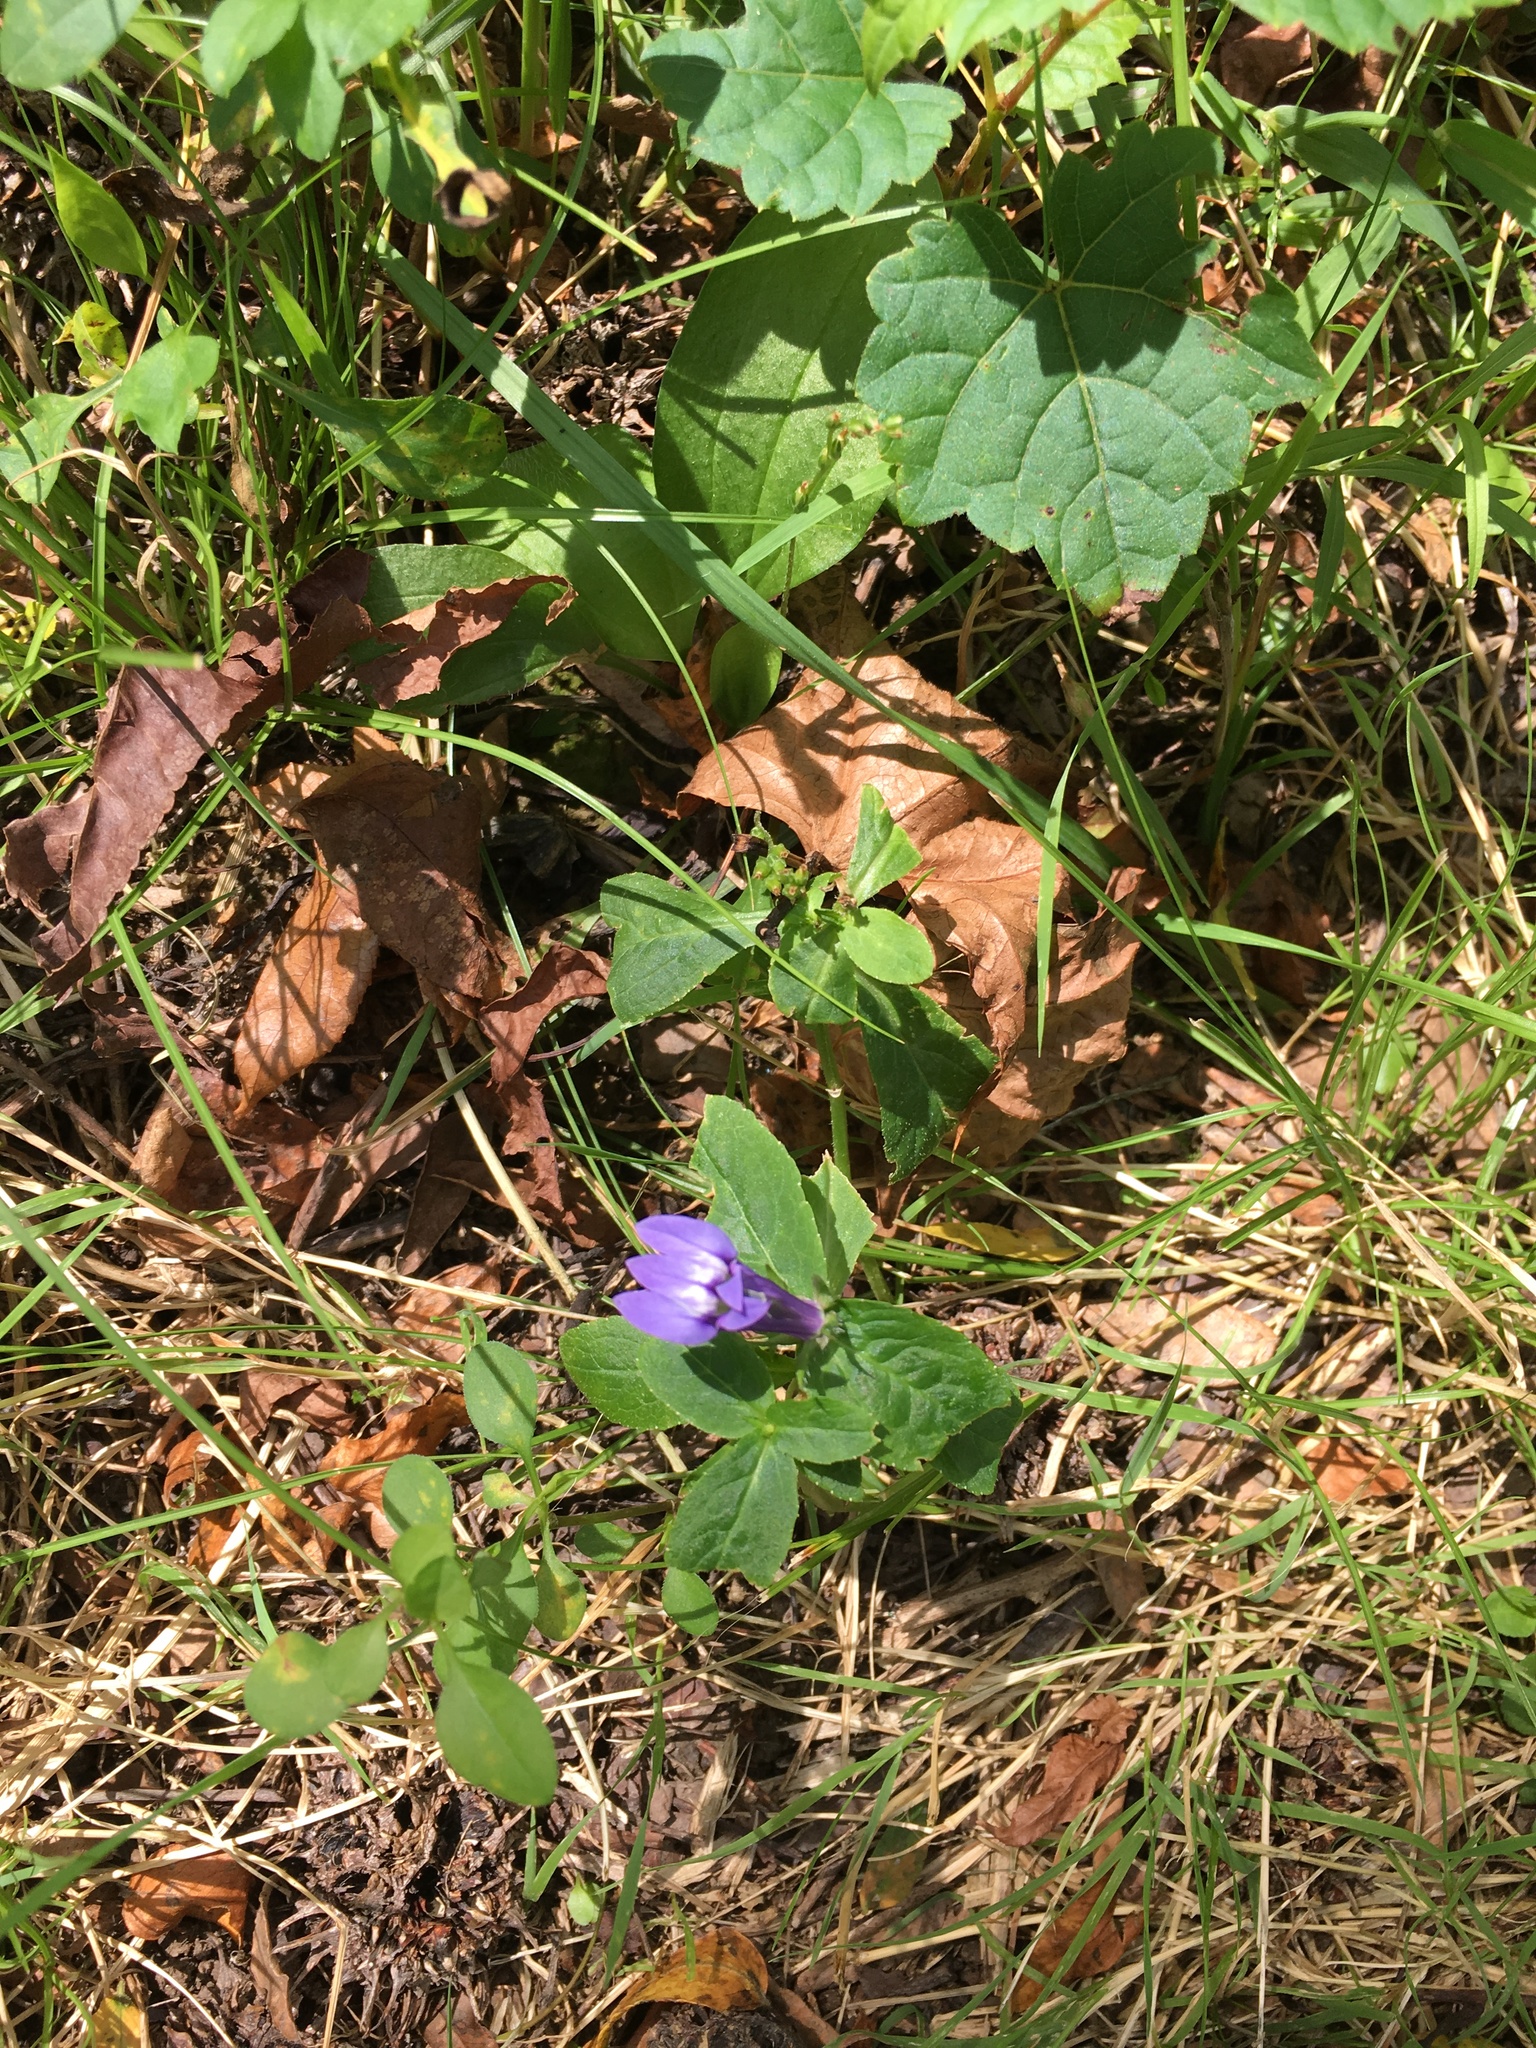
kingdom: Plantae
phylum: Tracheophyta
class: Magnoliopsida
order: Asterales
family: Campanulaceae
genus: Lobelia
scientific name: Lobelia siphilitica
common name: Great lobelia
